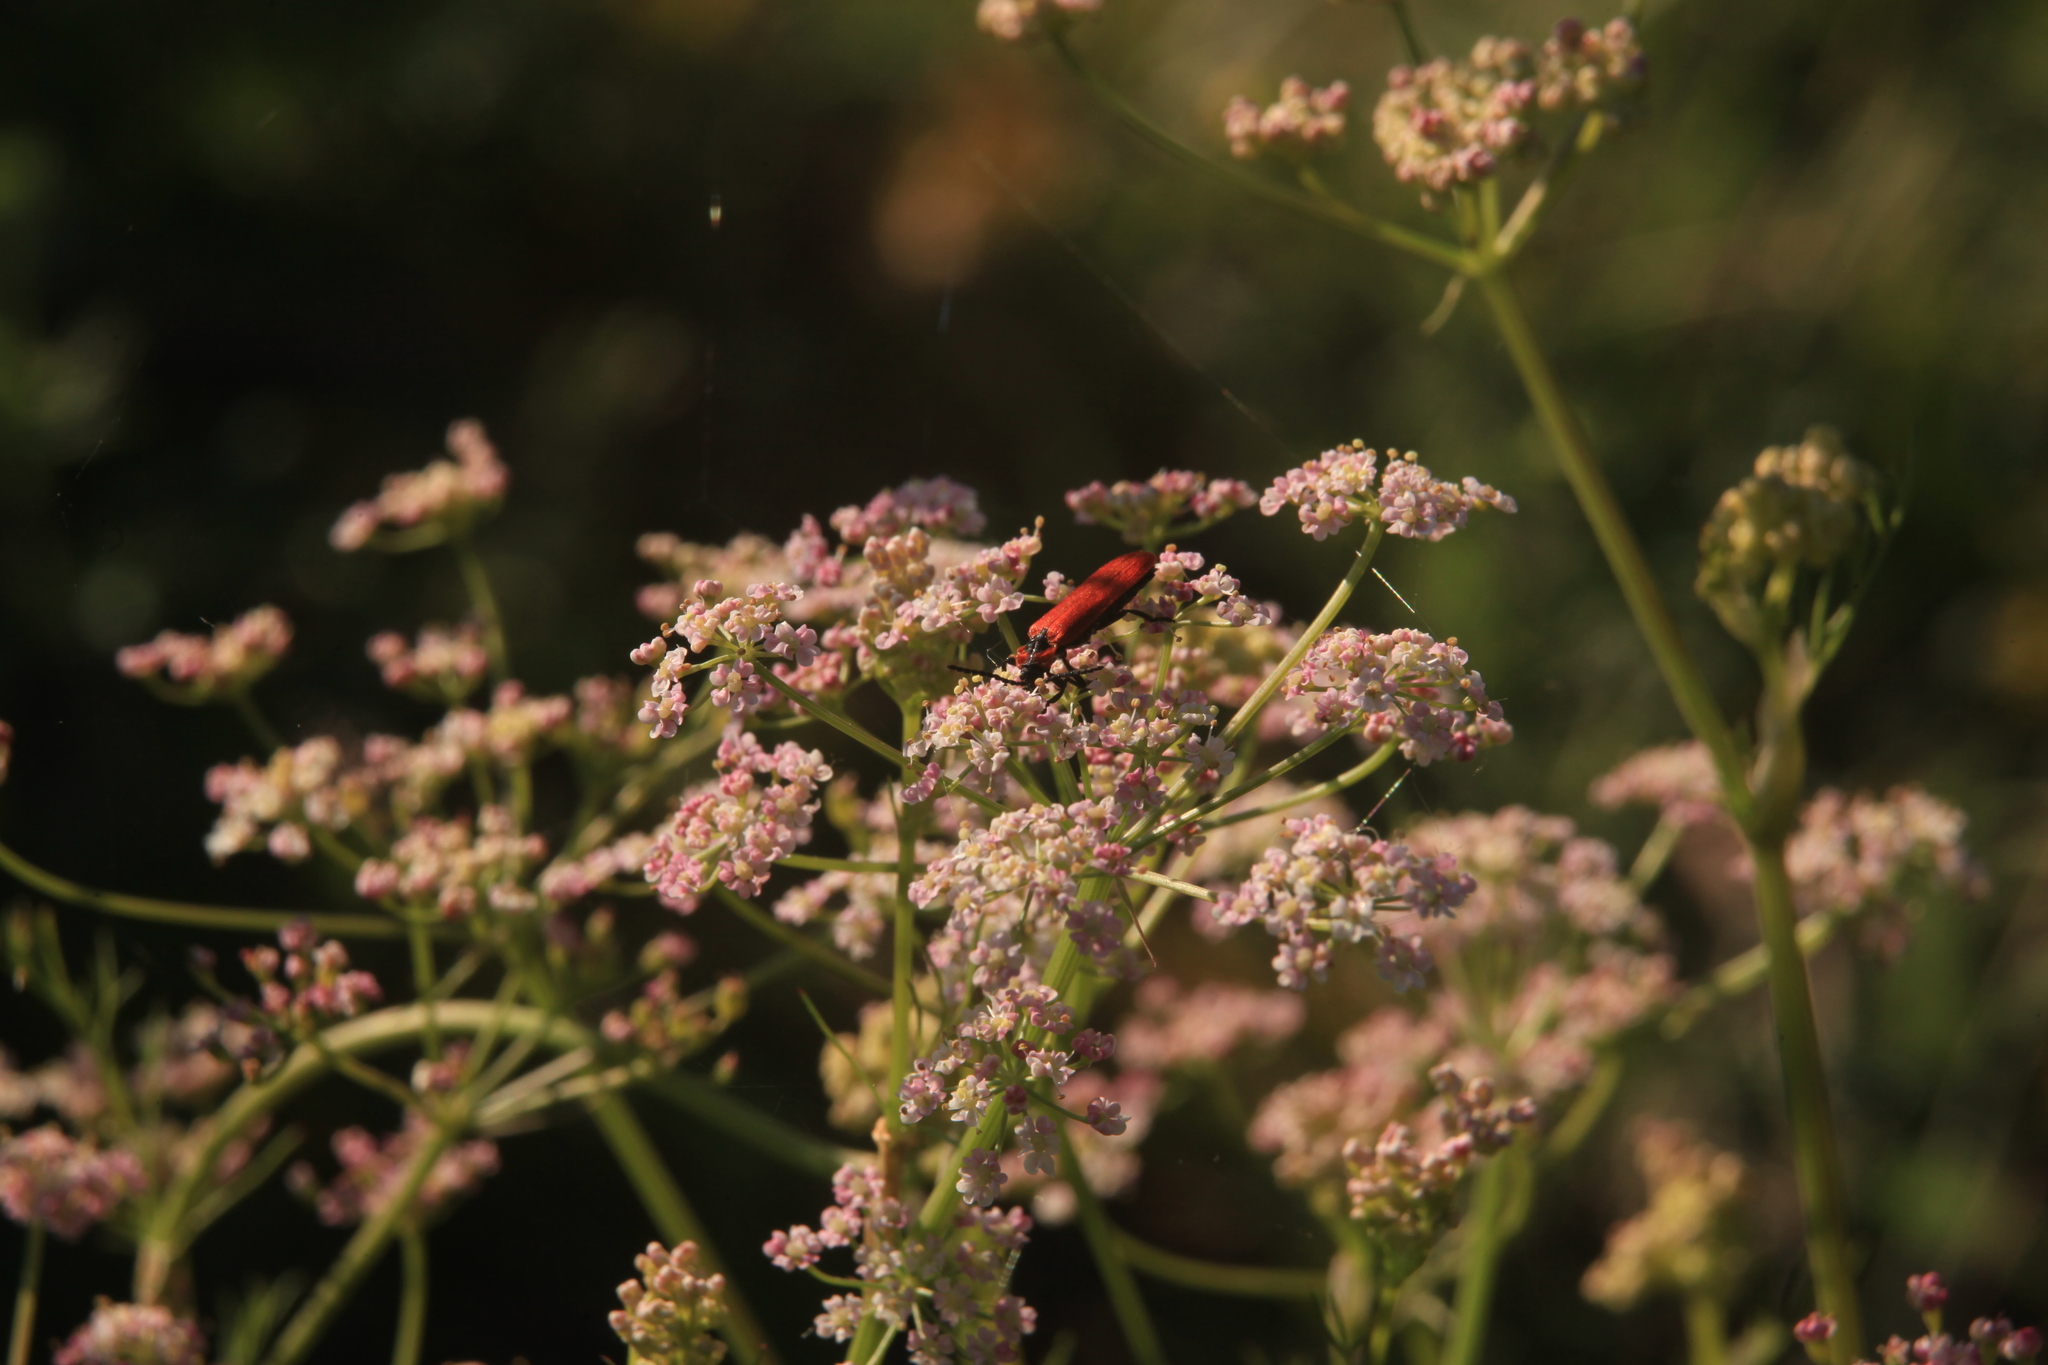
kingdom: Animalia
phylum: Arthropoda
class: Insecta
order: Coleoptera
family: Lycidae
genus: Lygistopterus
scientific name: Lygistopterus sanguineus
